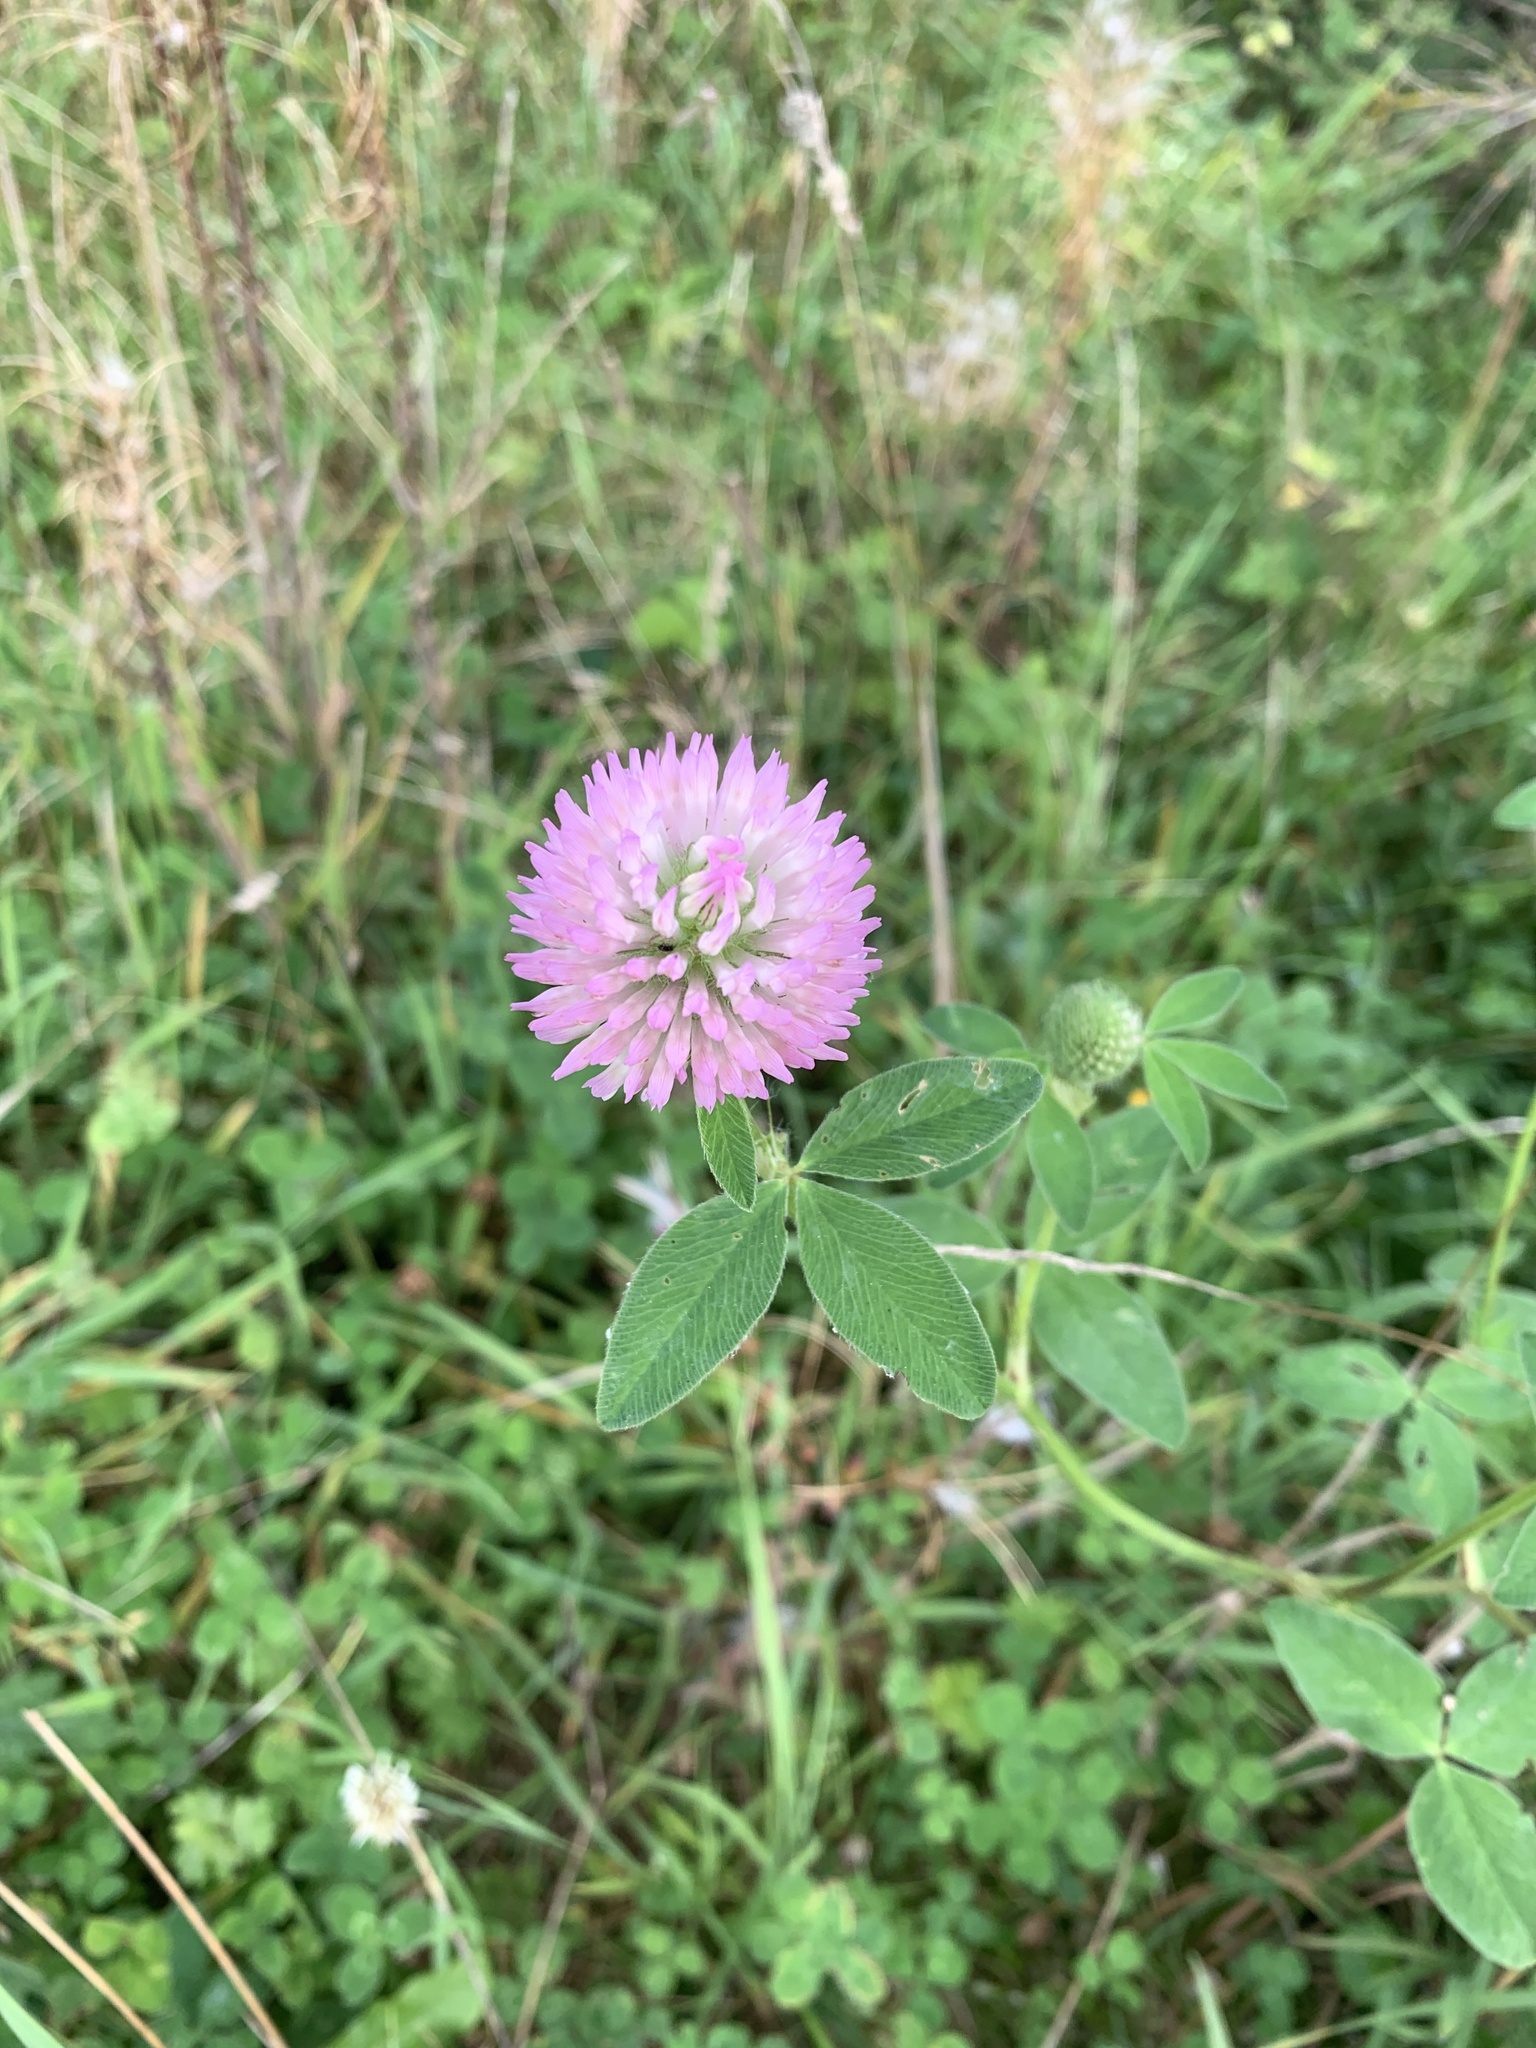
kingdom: Plantae
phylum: Tracheophyta
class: Magnoliopsida
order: Fabales
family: Fabaceae
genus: Trifolium
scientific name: Trifolium pratense
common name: Red clover
